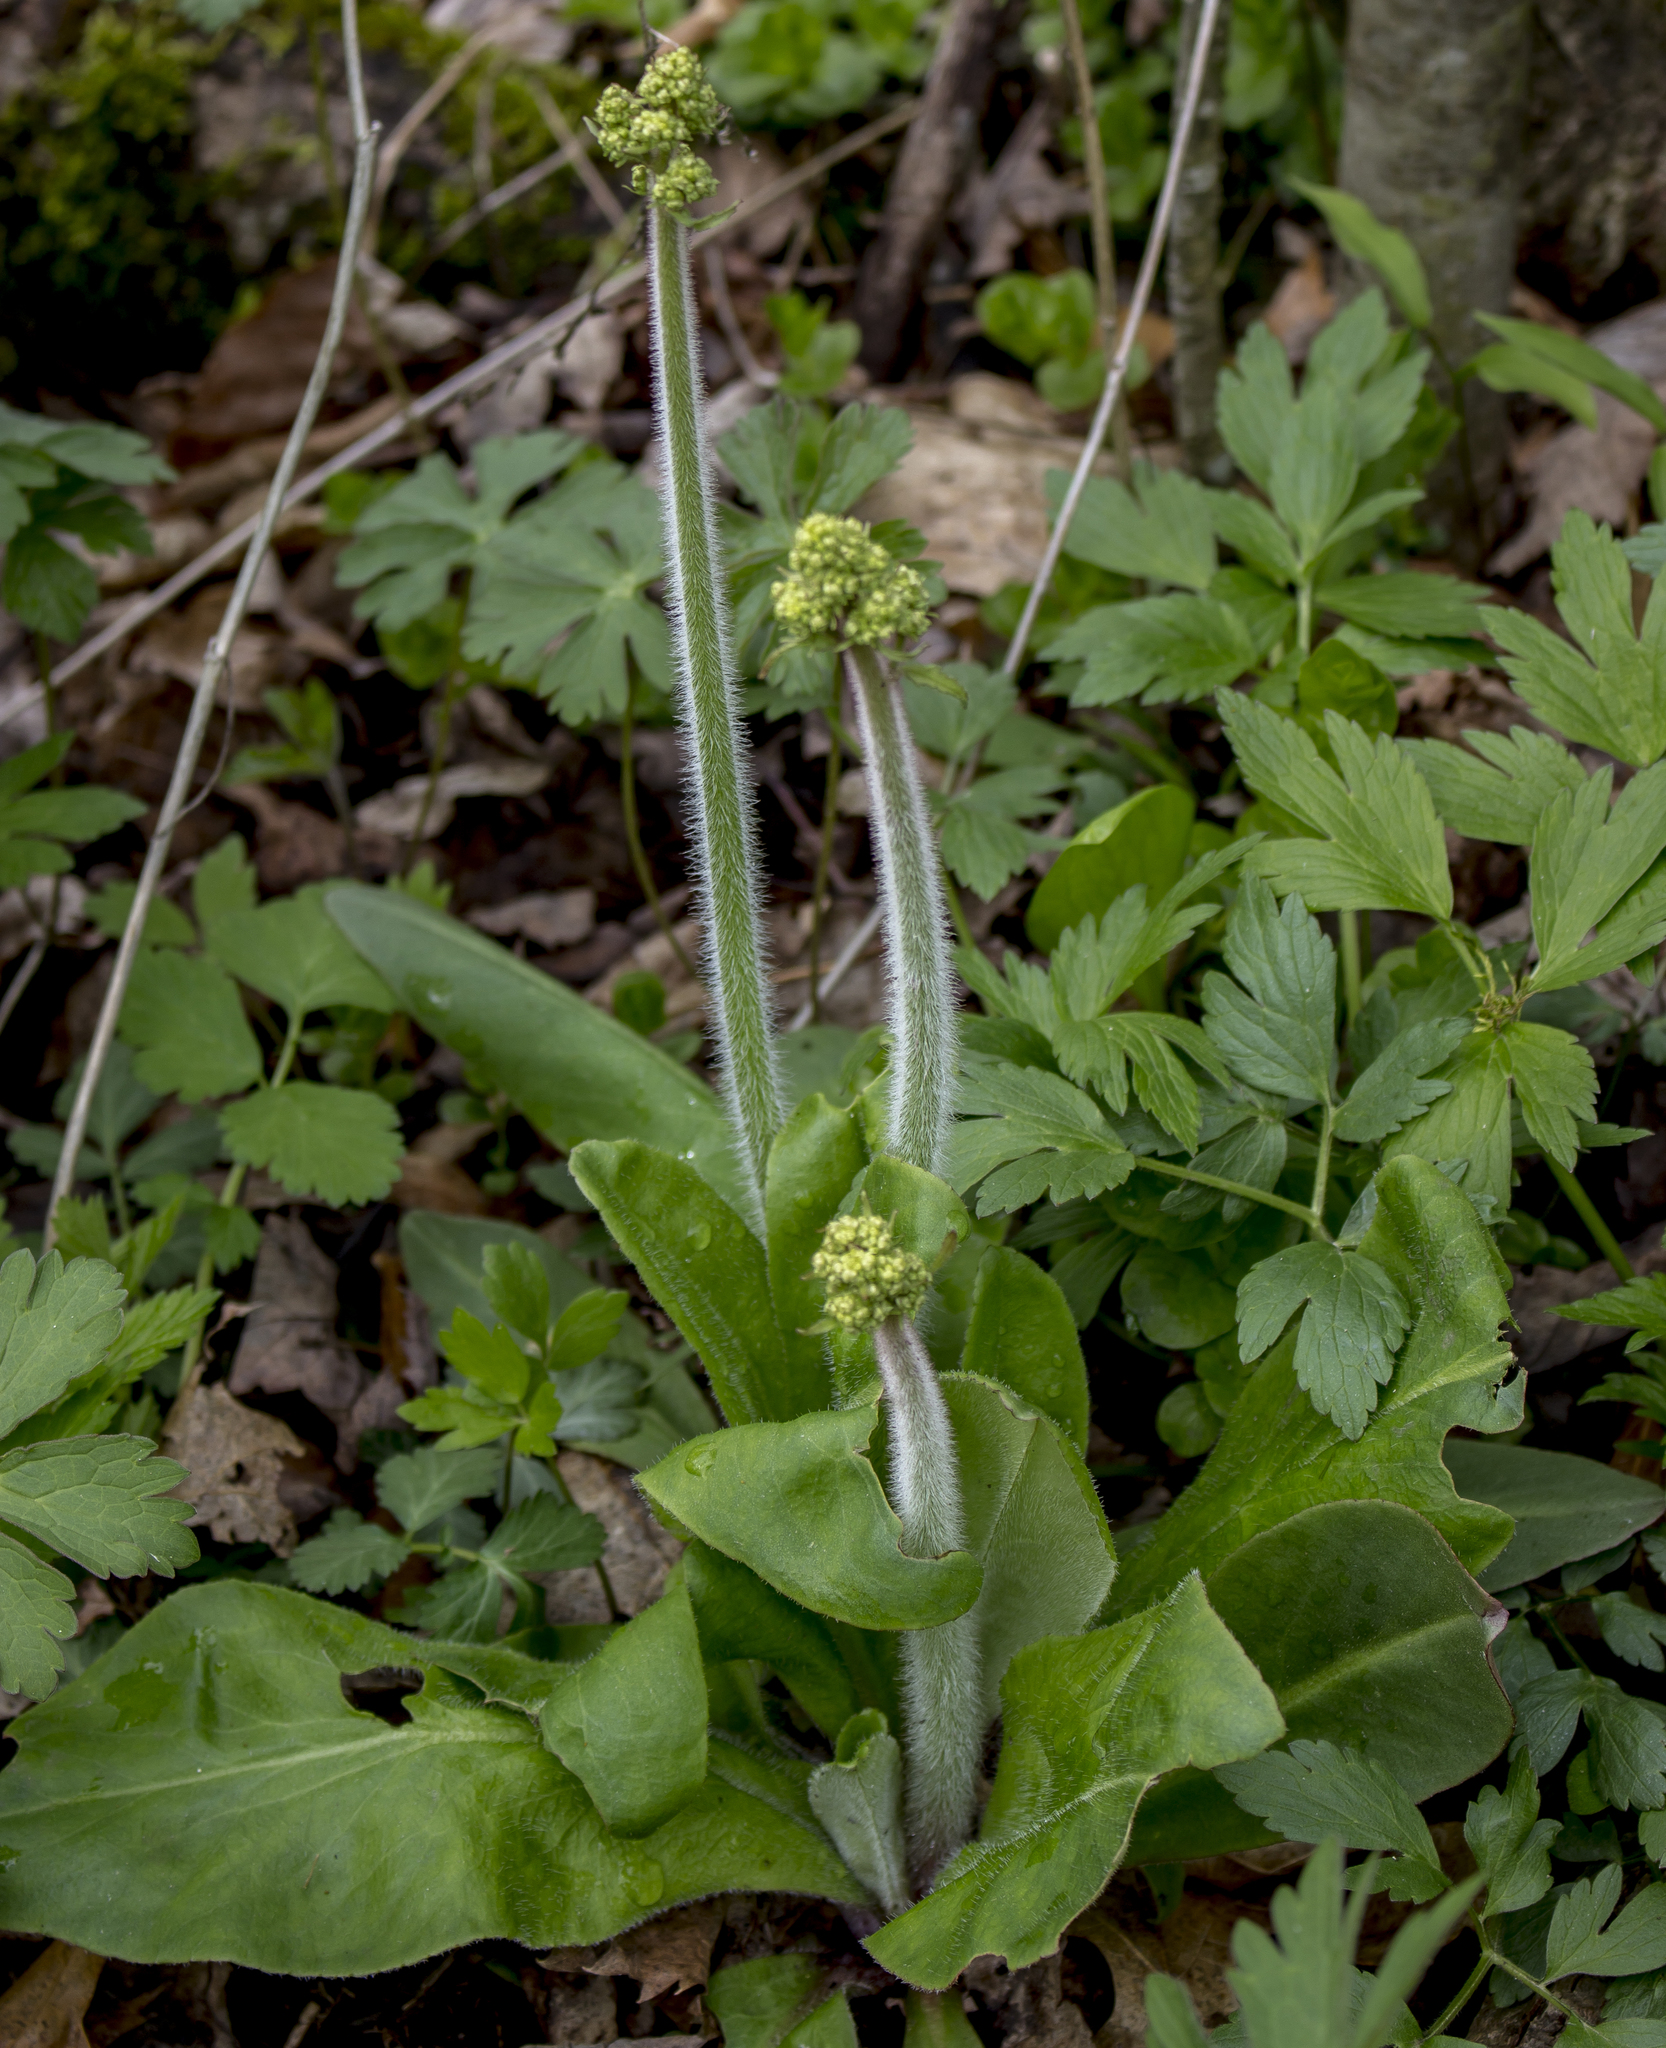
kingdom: Plantae
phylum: Tracheophyta
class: Magnoliopsida
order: Saxifragales
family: Saxifragaceae
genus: Micranthes
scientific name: Micranthes pensylvanica
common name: Marsh saxifrage
